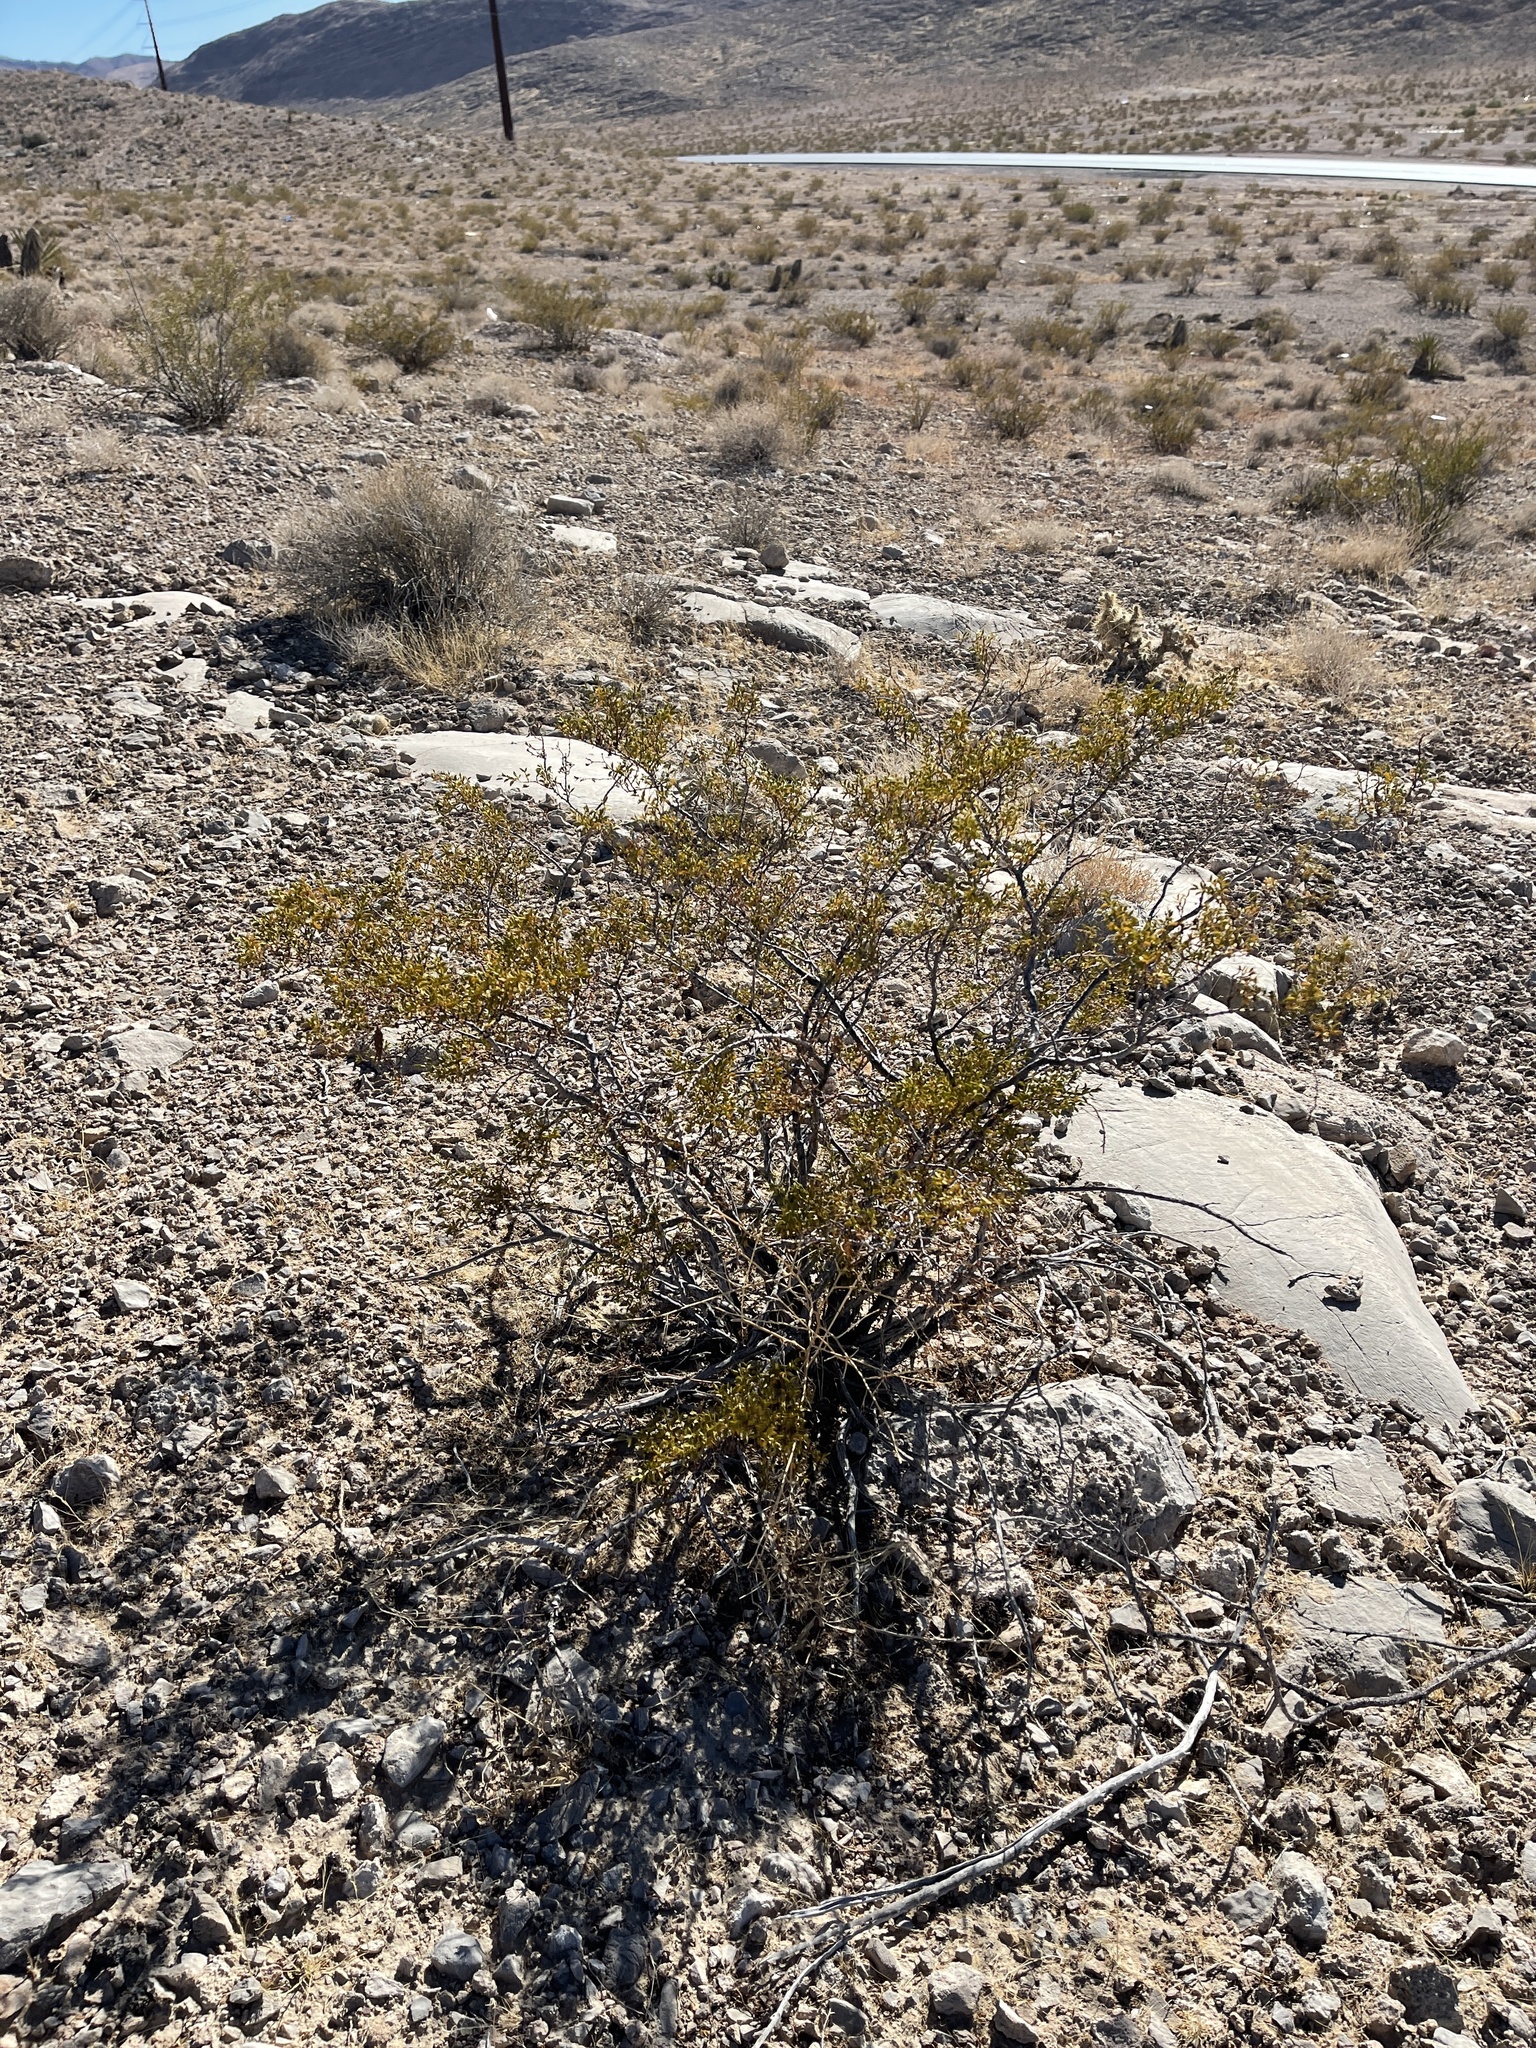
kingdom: Plantae
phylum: Tracheophyta
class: Magnoliopsida
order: Zygophyllales
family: Zygophyllaceae
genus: Larrea
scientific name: Larrea tridentata
